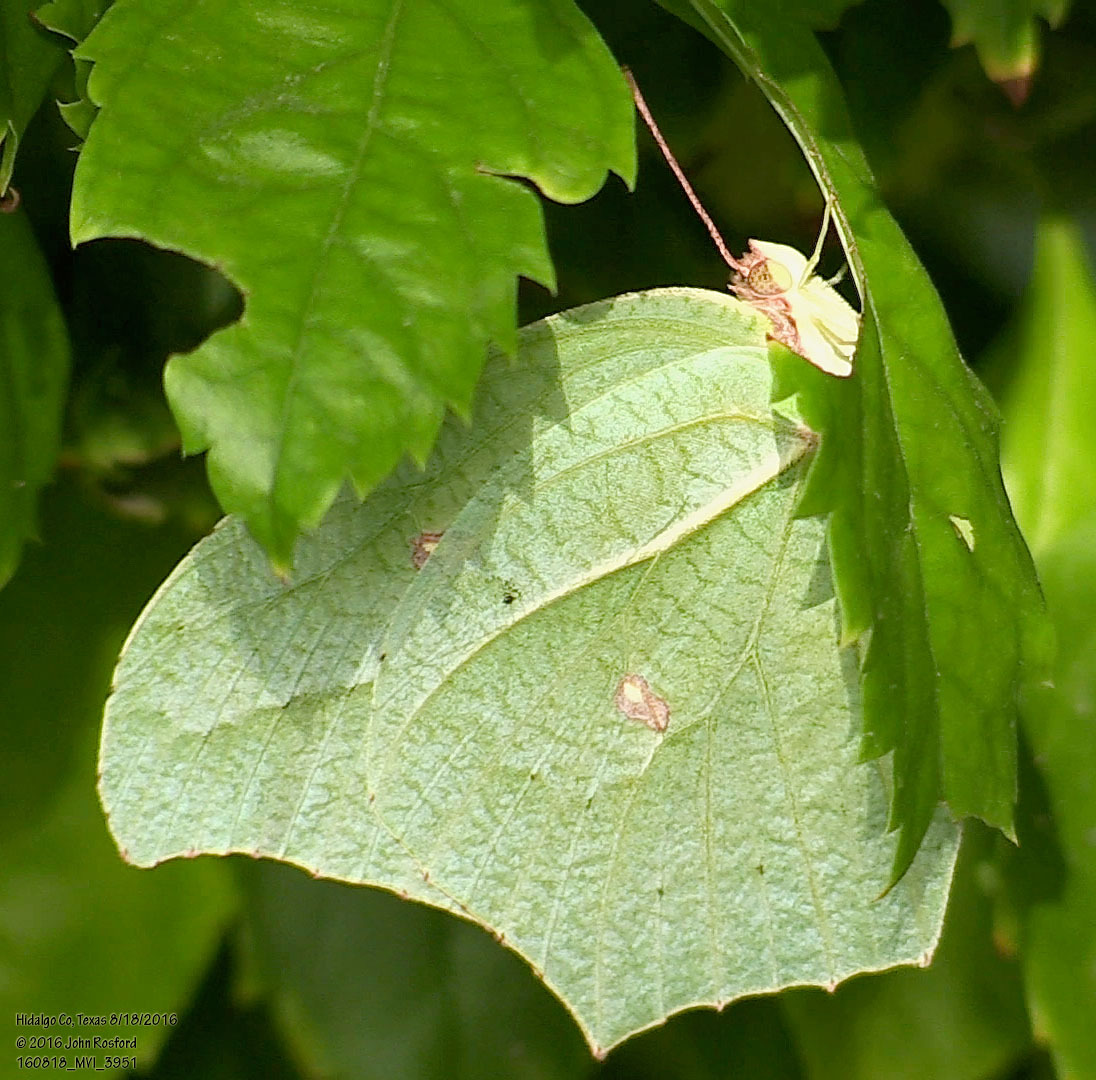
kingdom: Animalia
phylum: Arthropoda
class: Insecta
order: Lepidoptera
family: Pieridae
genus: Anteos
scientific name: Anteos maerula
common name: Angled sulphur
